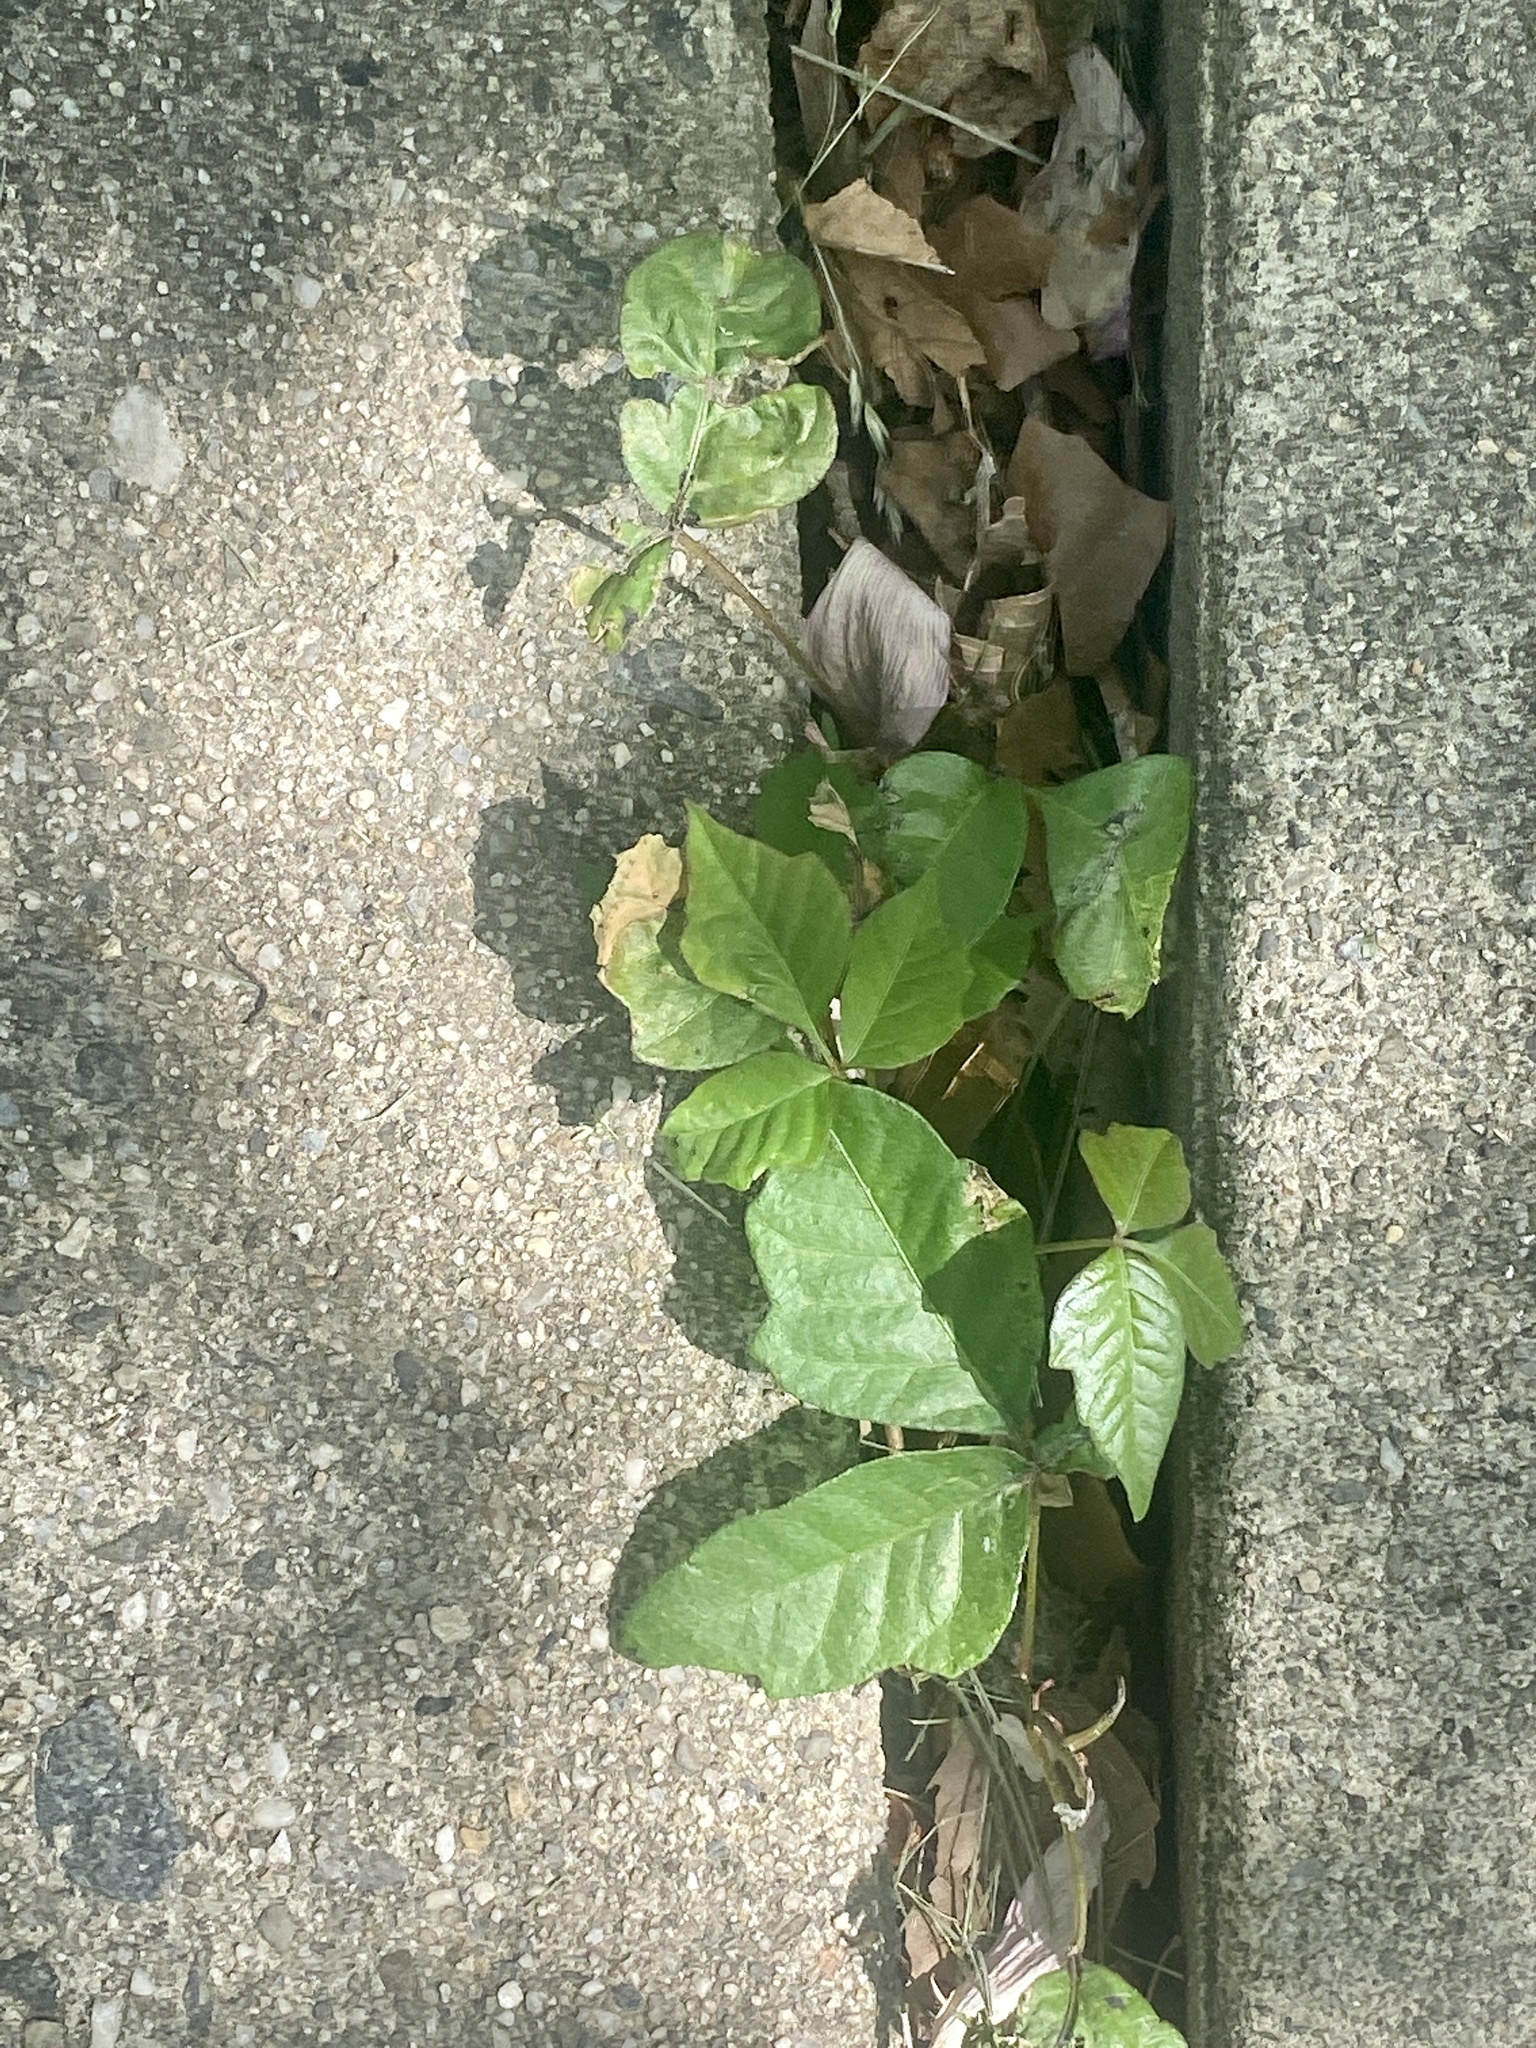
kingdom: Plantae
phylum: Tracheophyta
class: Magnoliopsida
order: Sapindales
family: Anacardiaceae
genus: Toxicodendron
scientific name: Toxicodendron radicans
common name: Poison ivy
